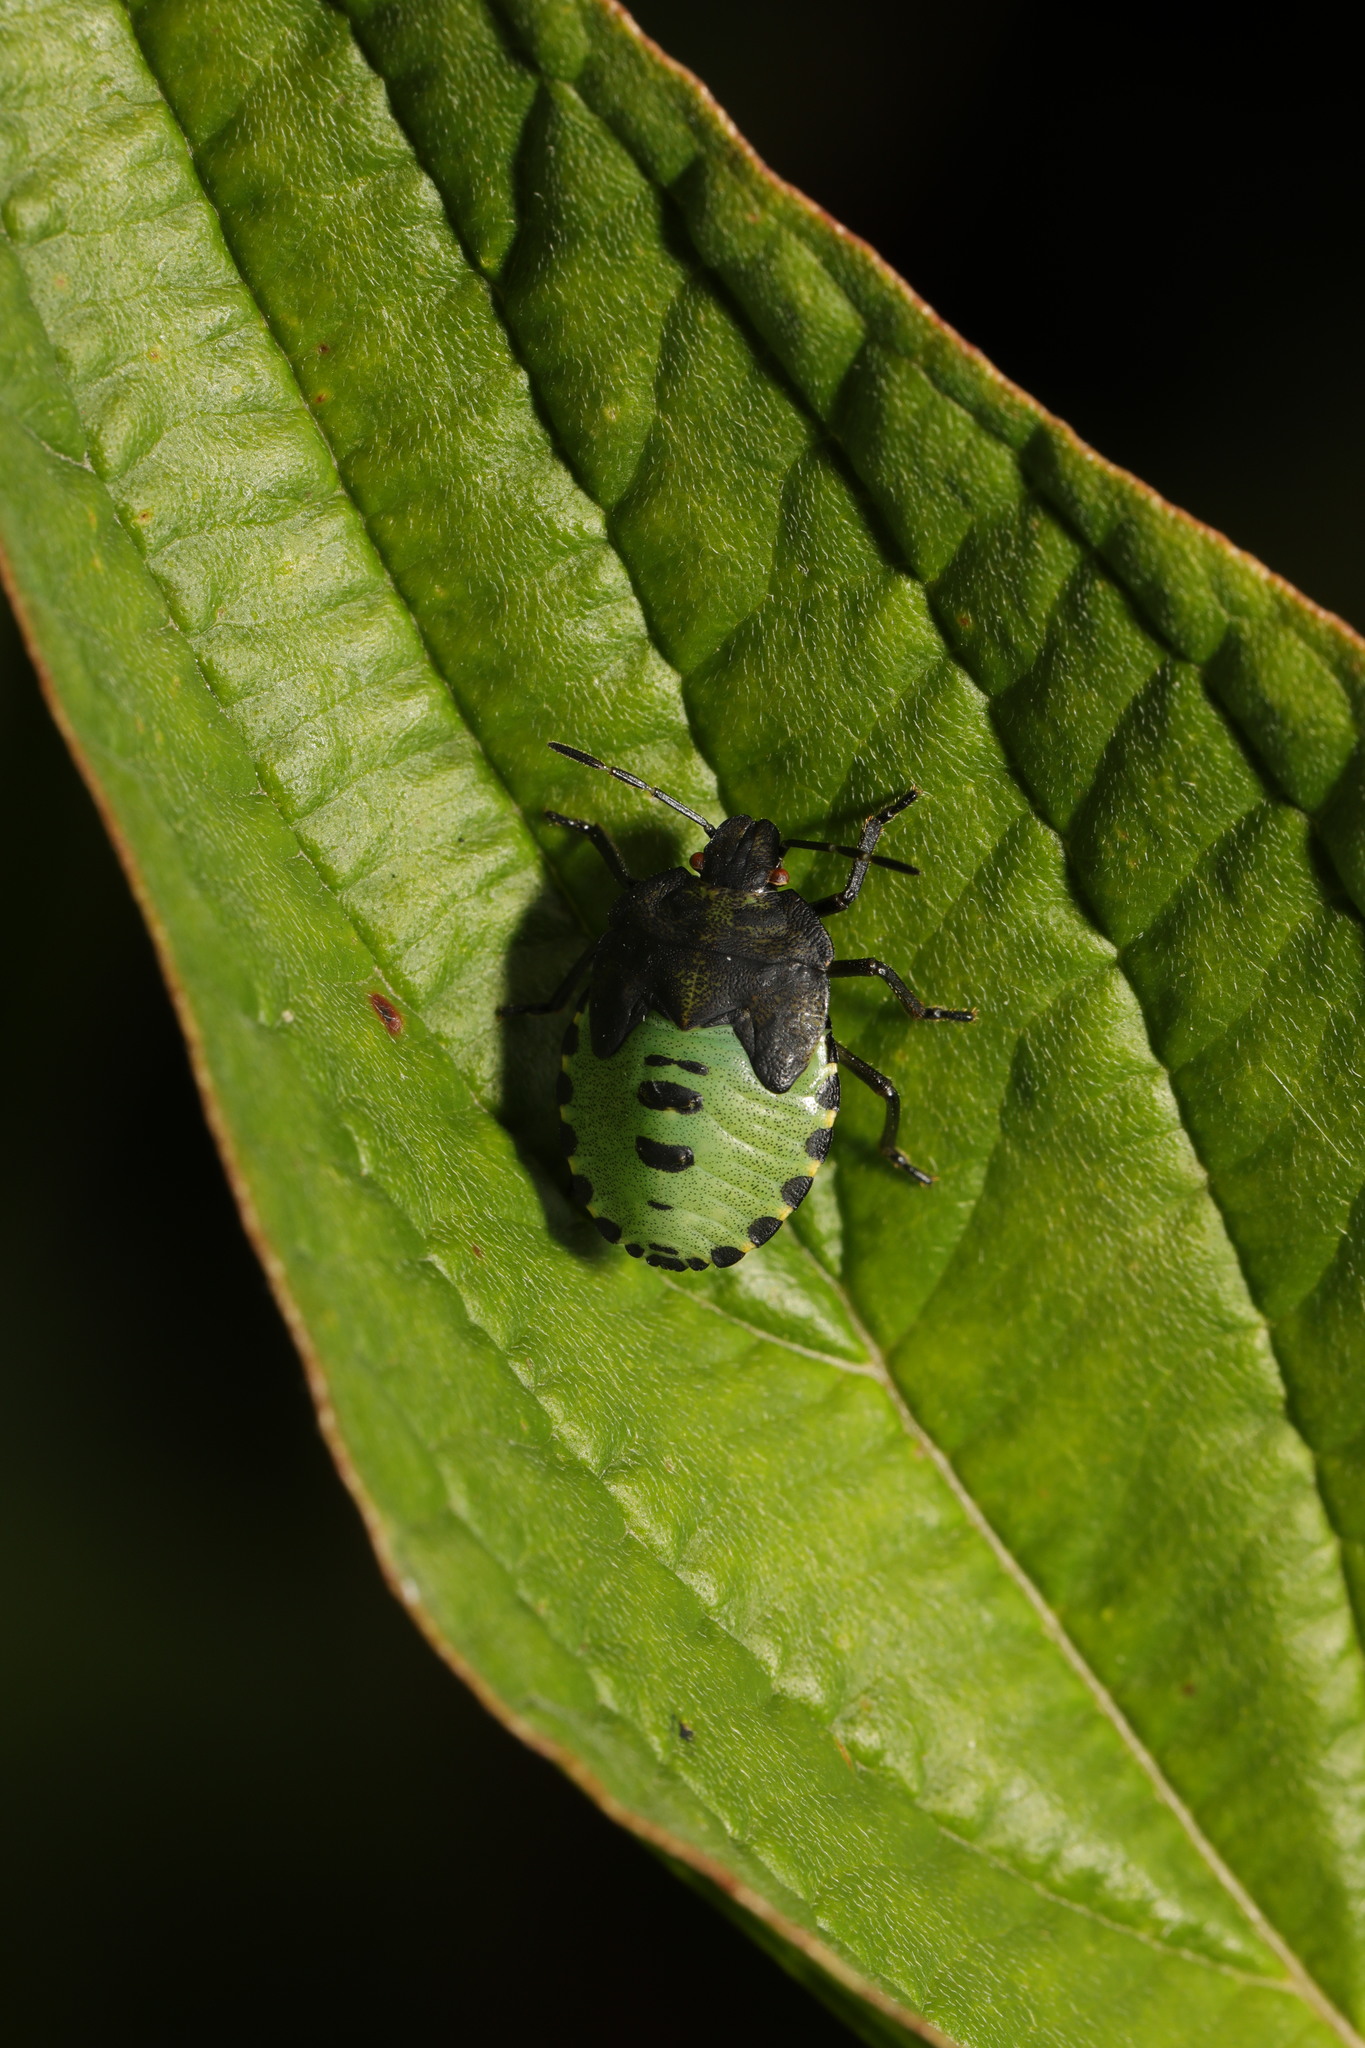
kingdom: Animalia
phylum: Arthropoda
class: Insecta
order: Hemiptera
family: Pentatomidae
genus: Palomena
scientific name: Palomena prasina
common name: Green shieldbug
